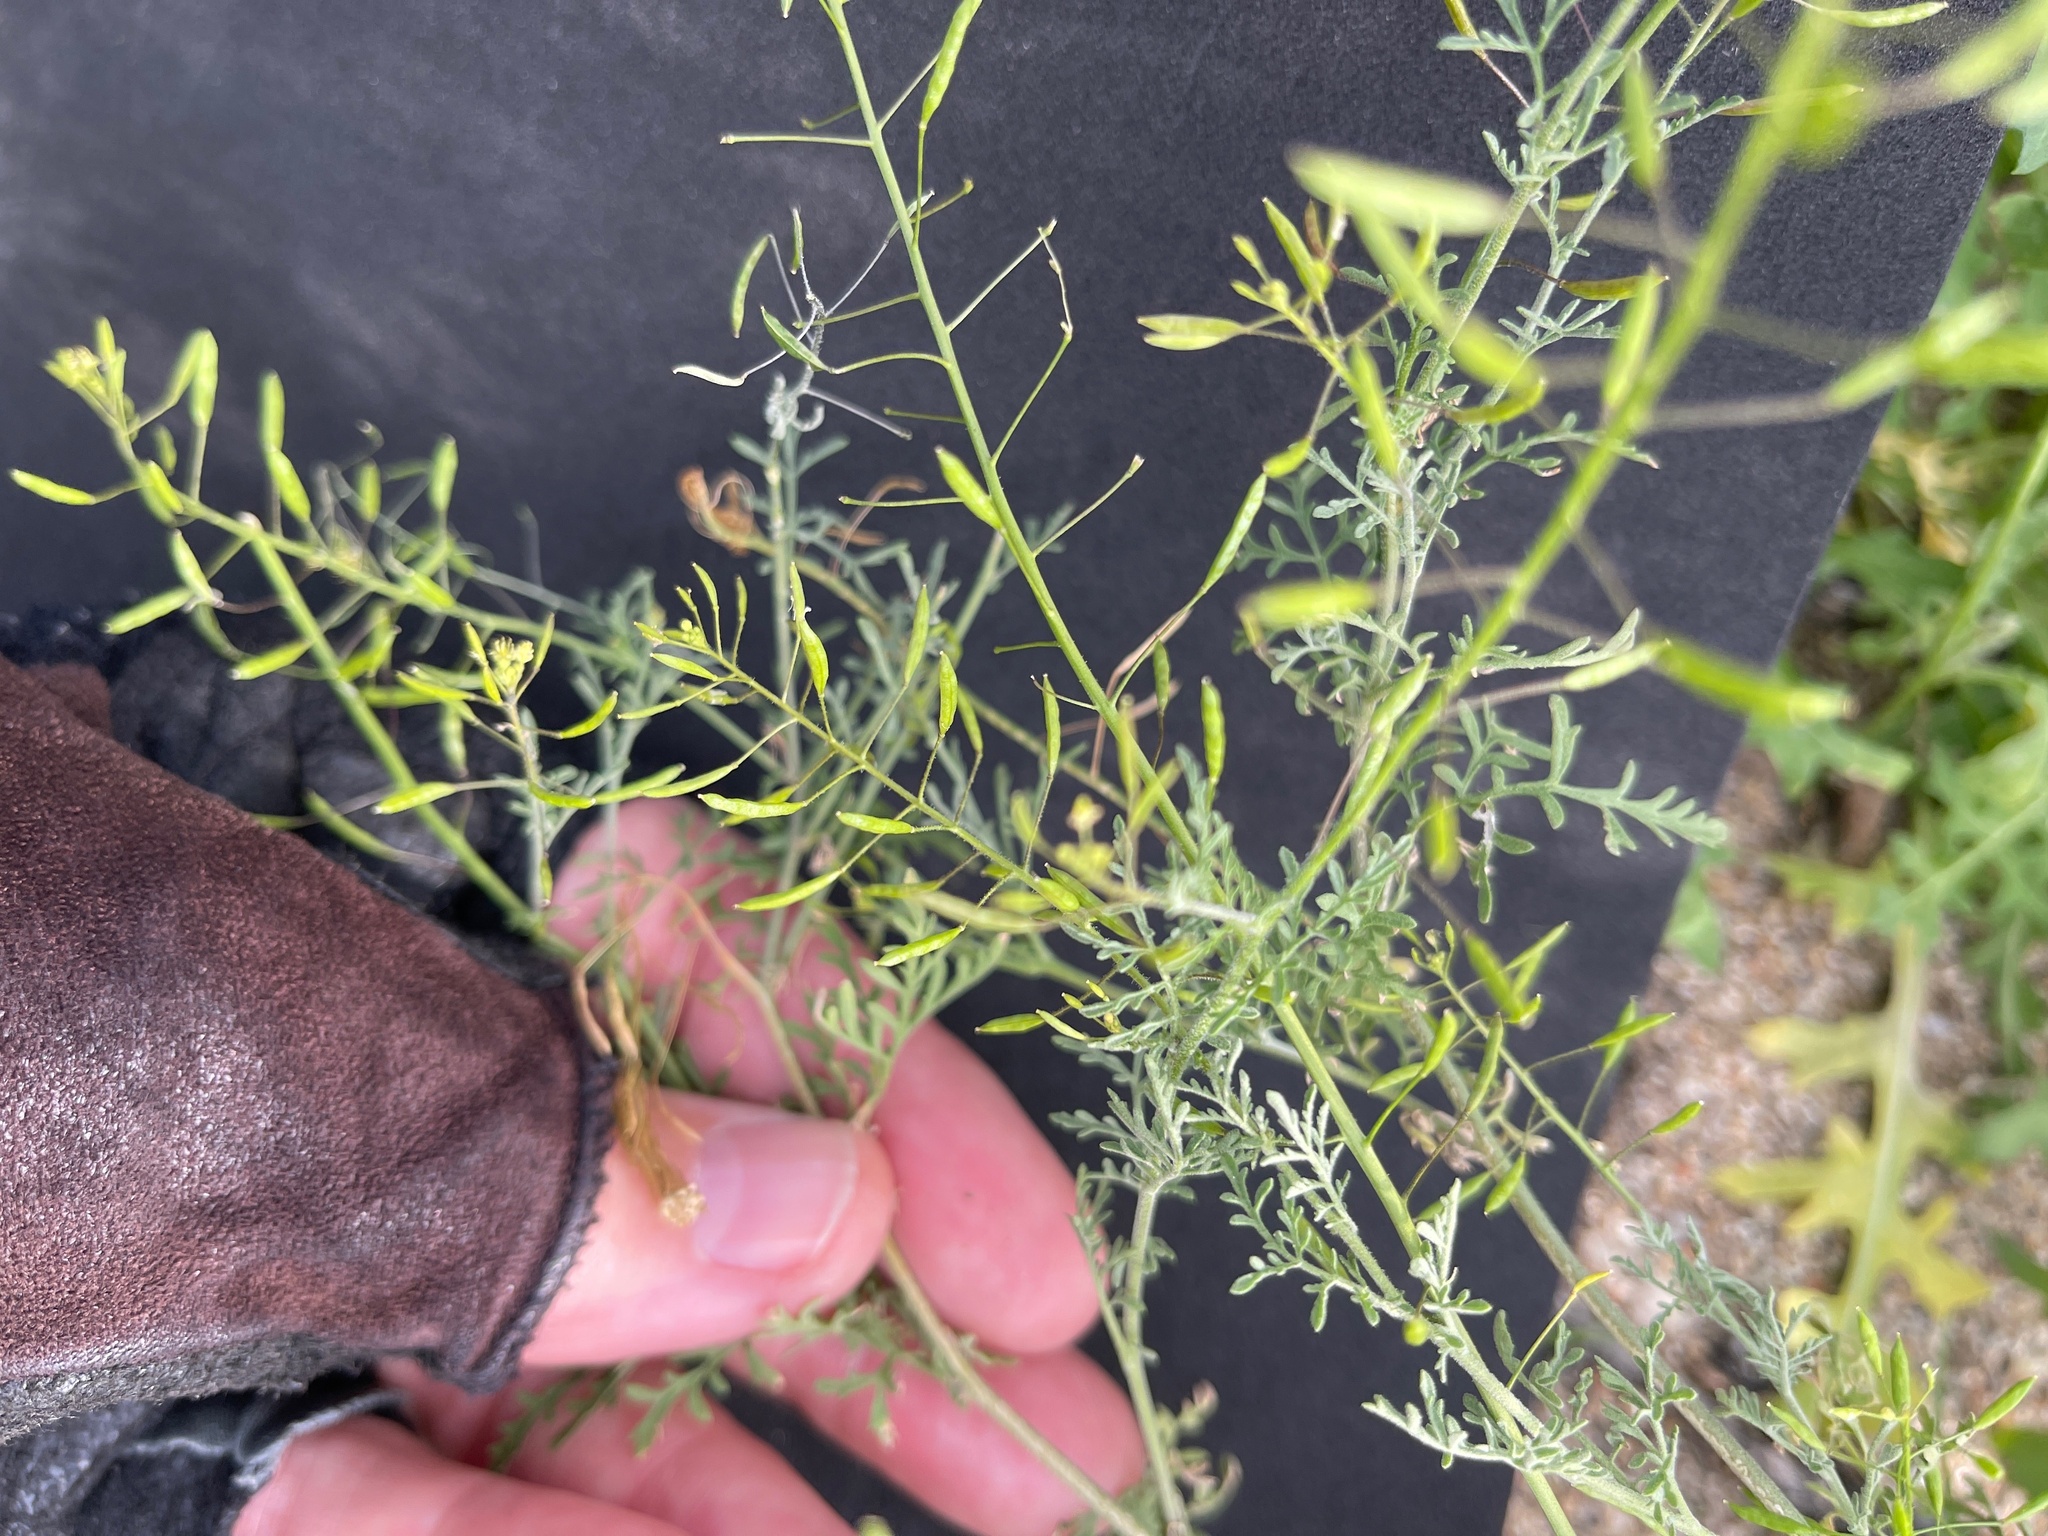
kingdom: Plantae
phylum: Tracheophyta
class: Magnoliopsida
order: Brassicales
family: Brassicaceae
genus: Descurainia
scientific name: Descurainia pinnata
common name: Western tansy mustard
